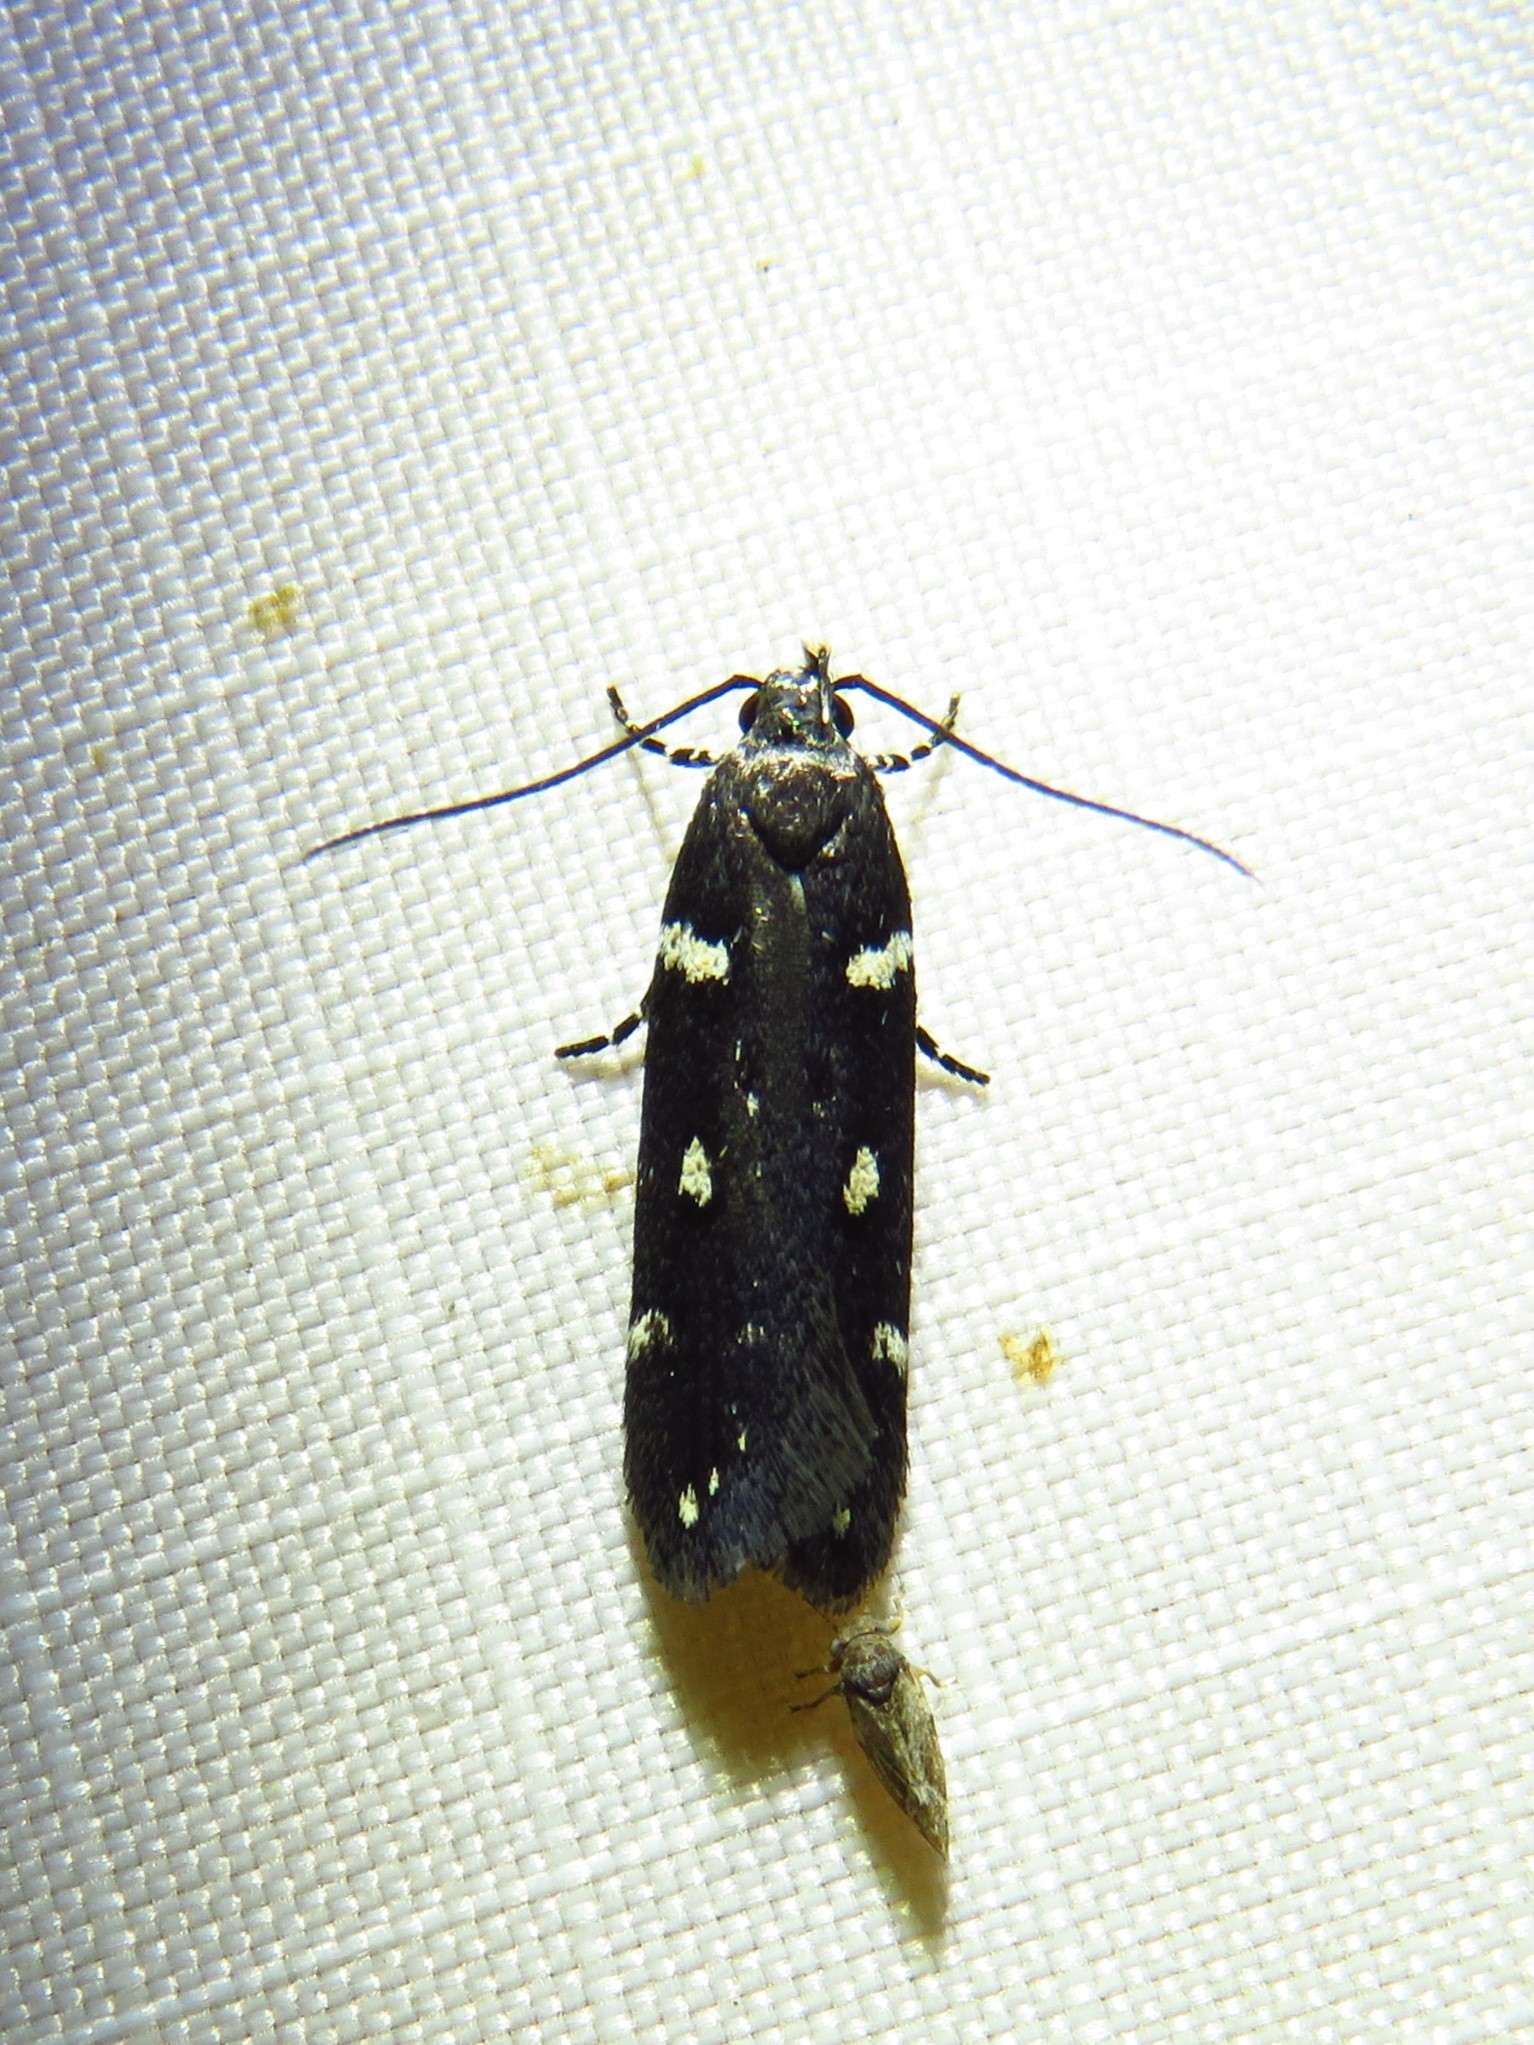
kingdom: Animalia
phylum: Arthropoda
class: Insecta
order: Lepidoptera
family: Gelechiidae
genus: Aroga
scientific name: Aroga compositella
